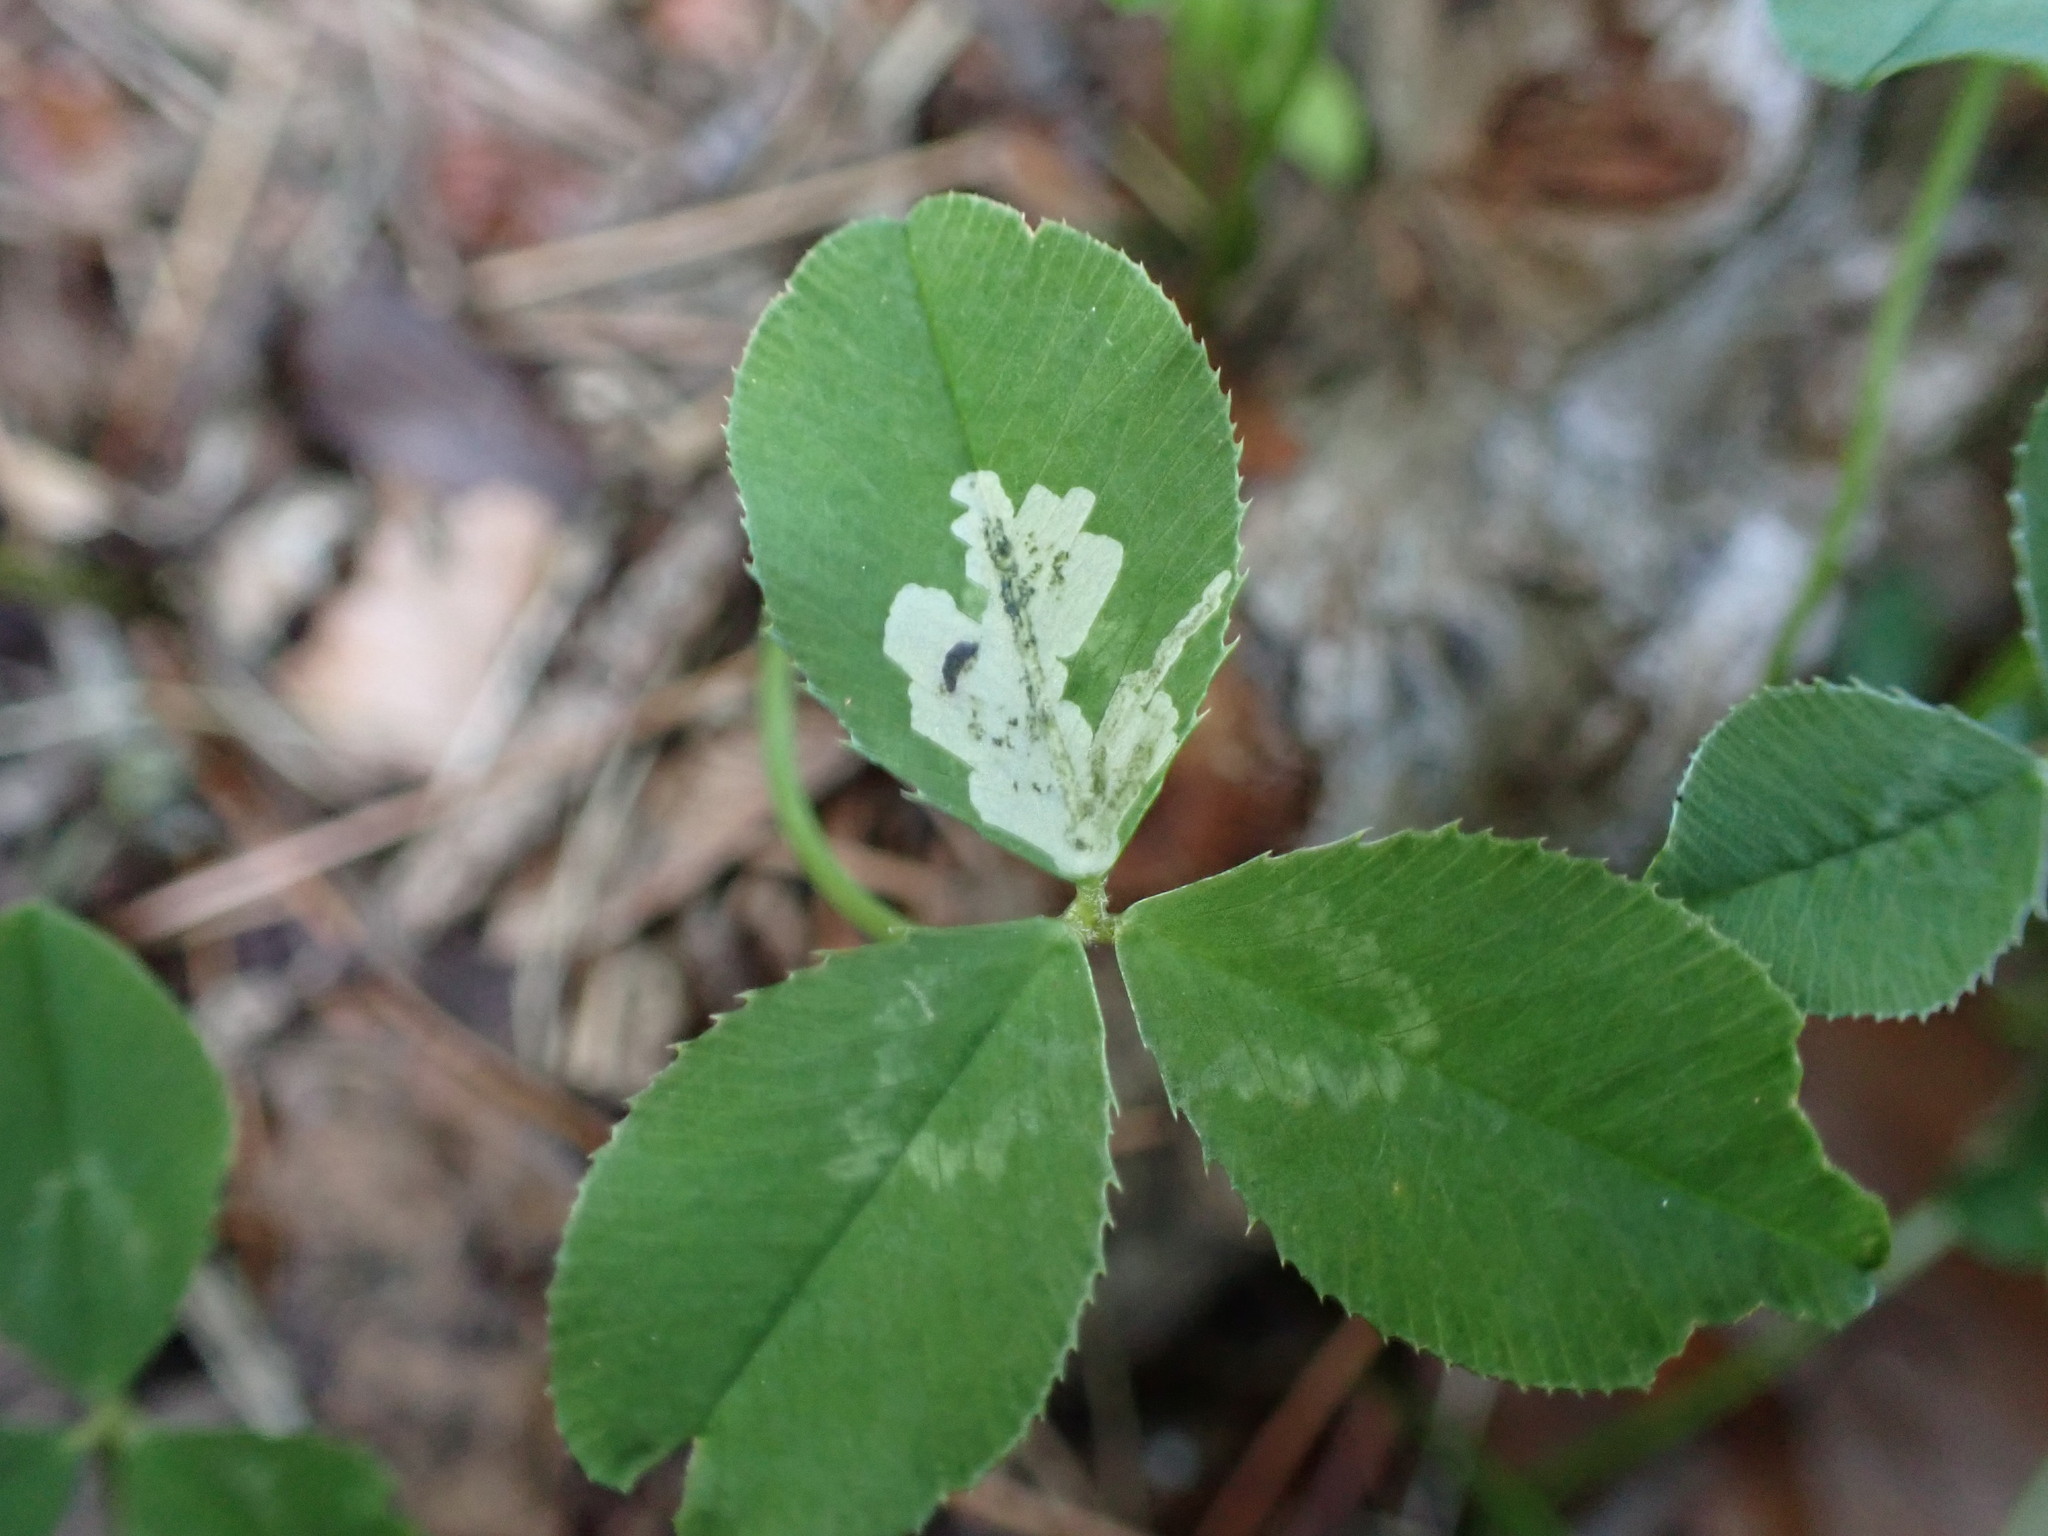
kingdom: Animalia
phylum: Arthropoda
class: Insecta
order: Diptera
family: Agromyzidae
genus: Liriomyza
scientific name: Liriomyza fricki
